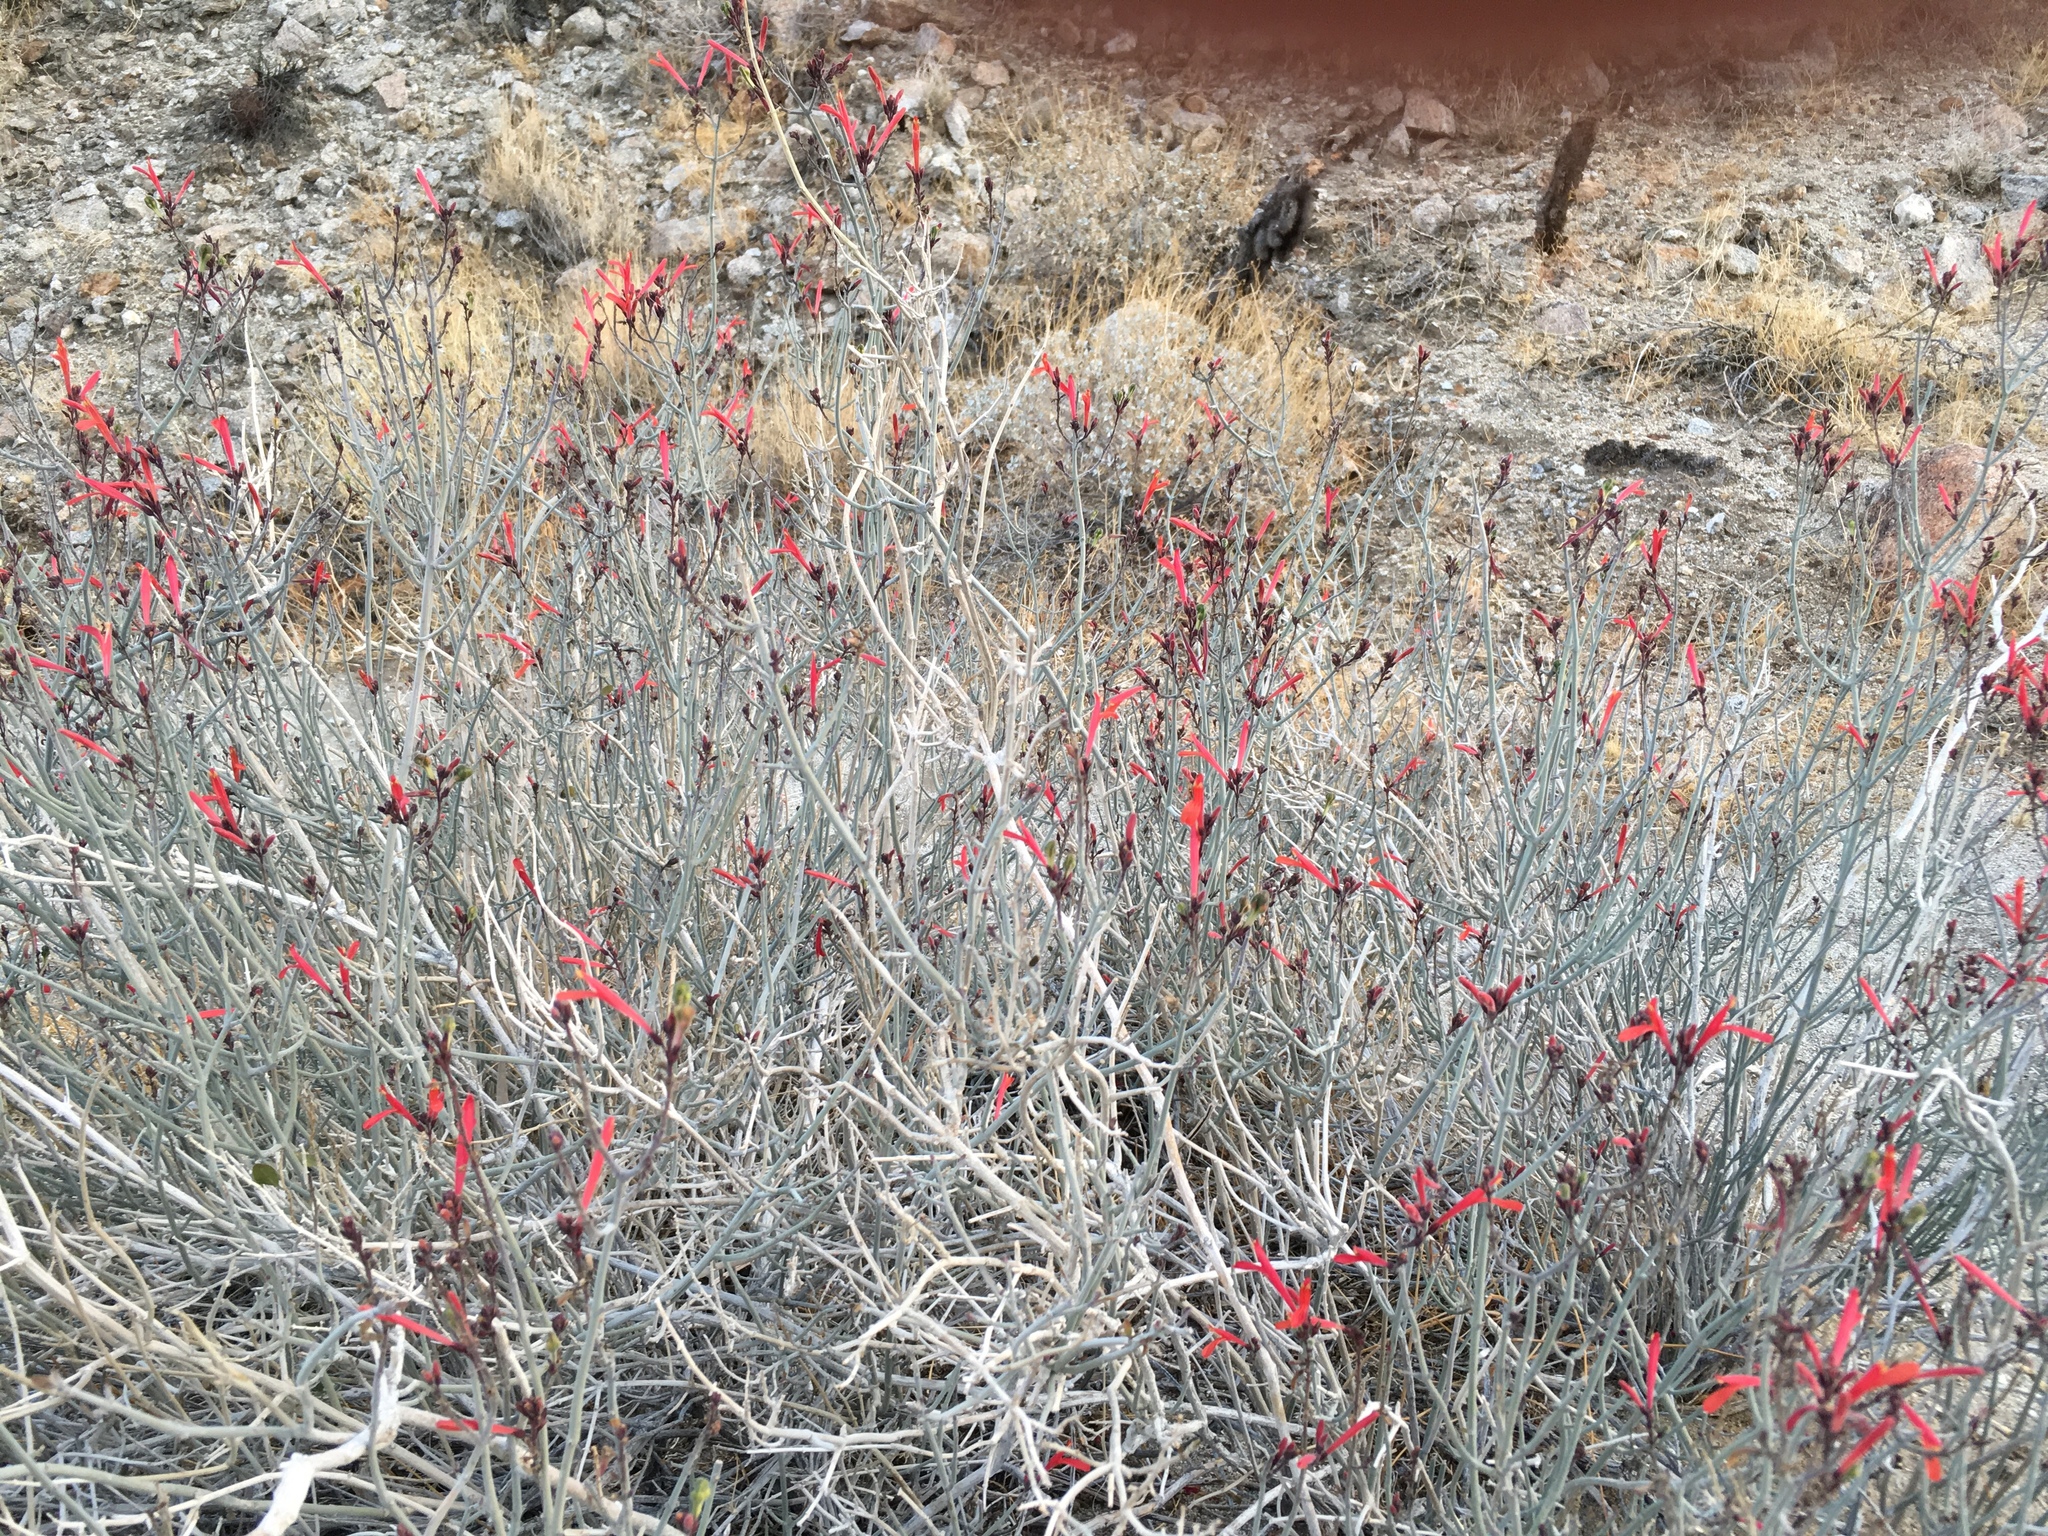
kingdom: Plantae
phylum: Tracheophyta
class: Magnoliopsida
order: Lamiales
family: Acanthaceae
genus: Justicia
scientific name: Justicia californica
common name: Chuparosa-honeysuckle
